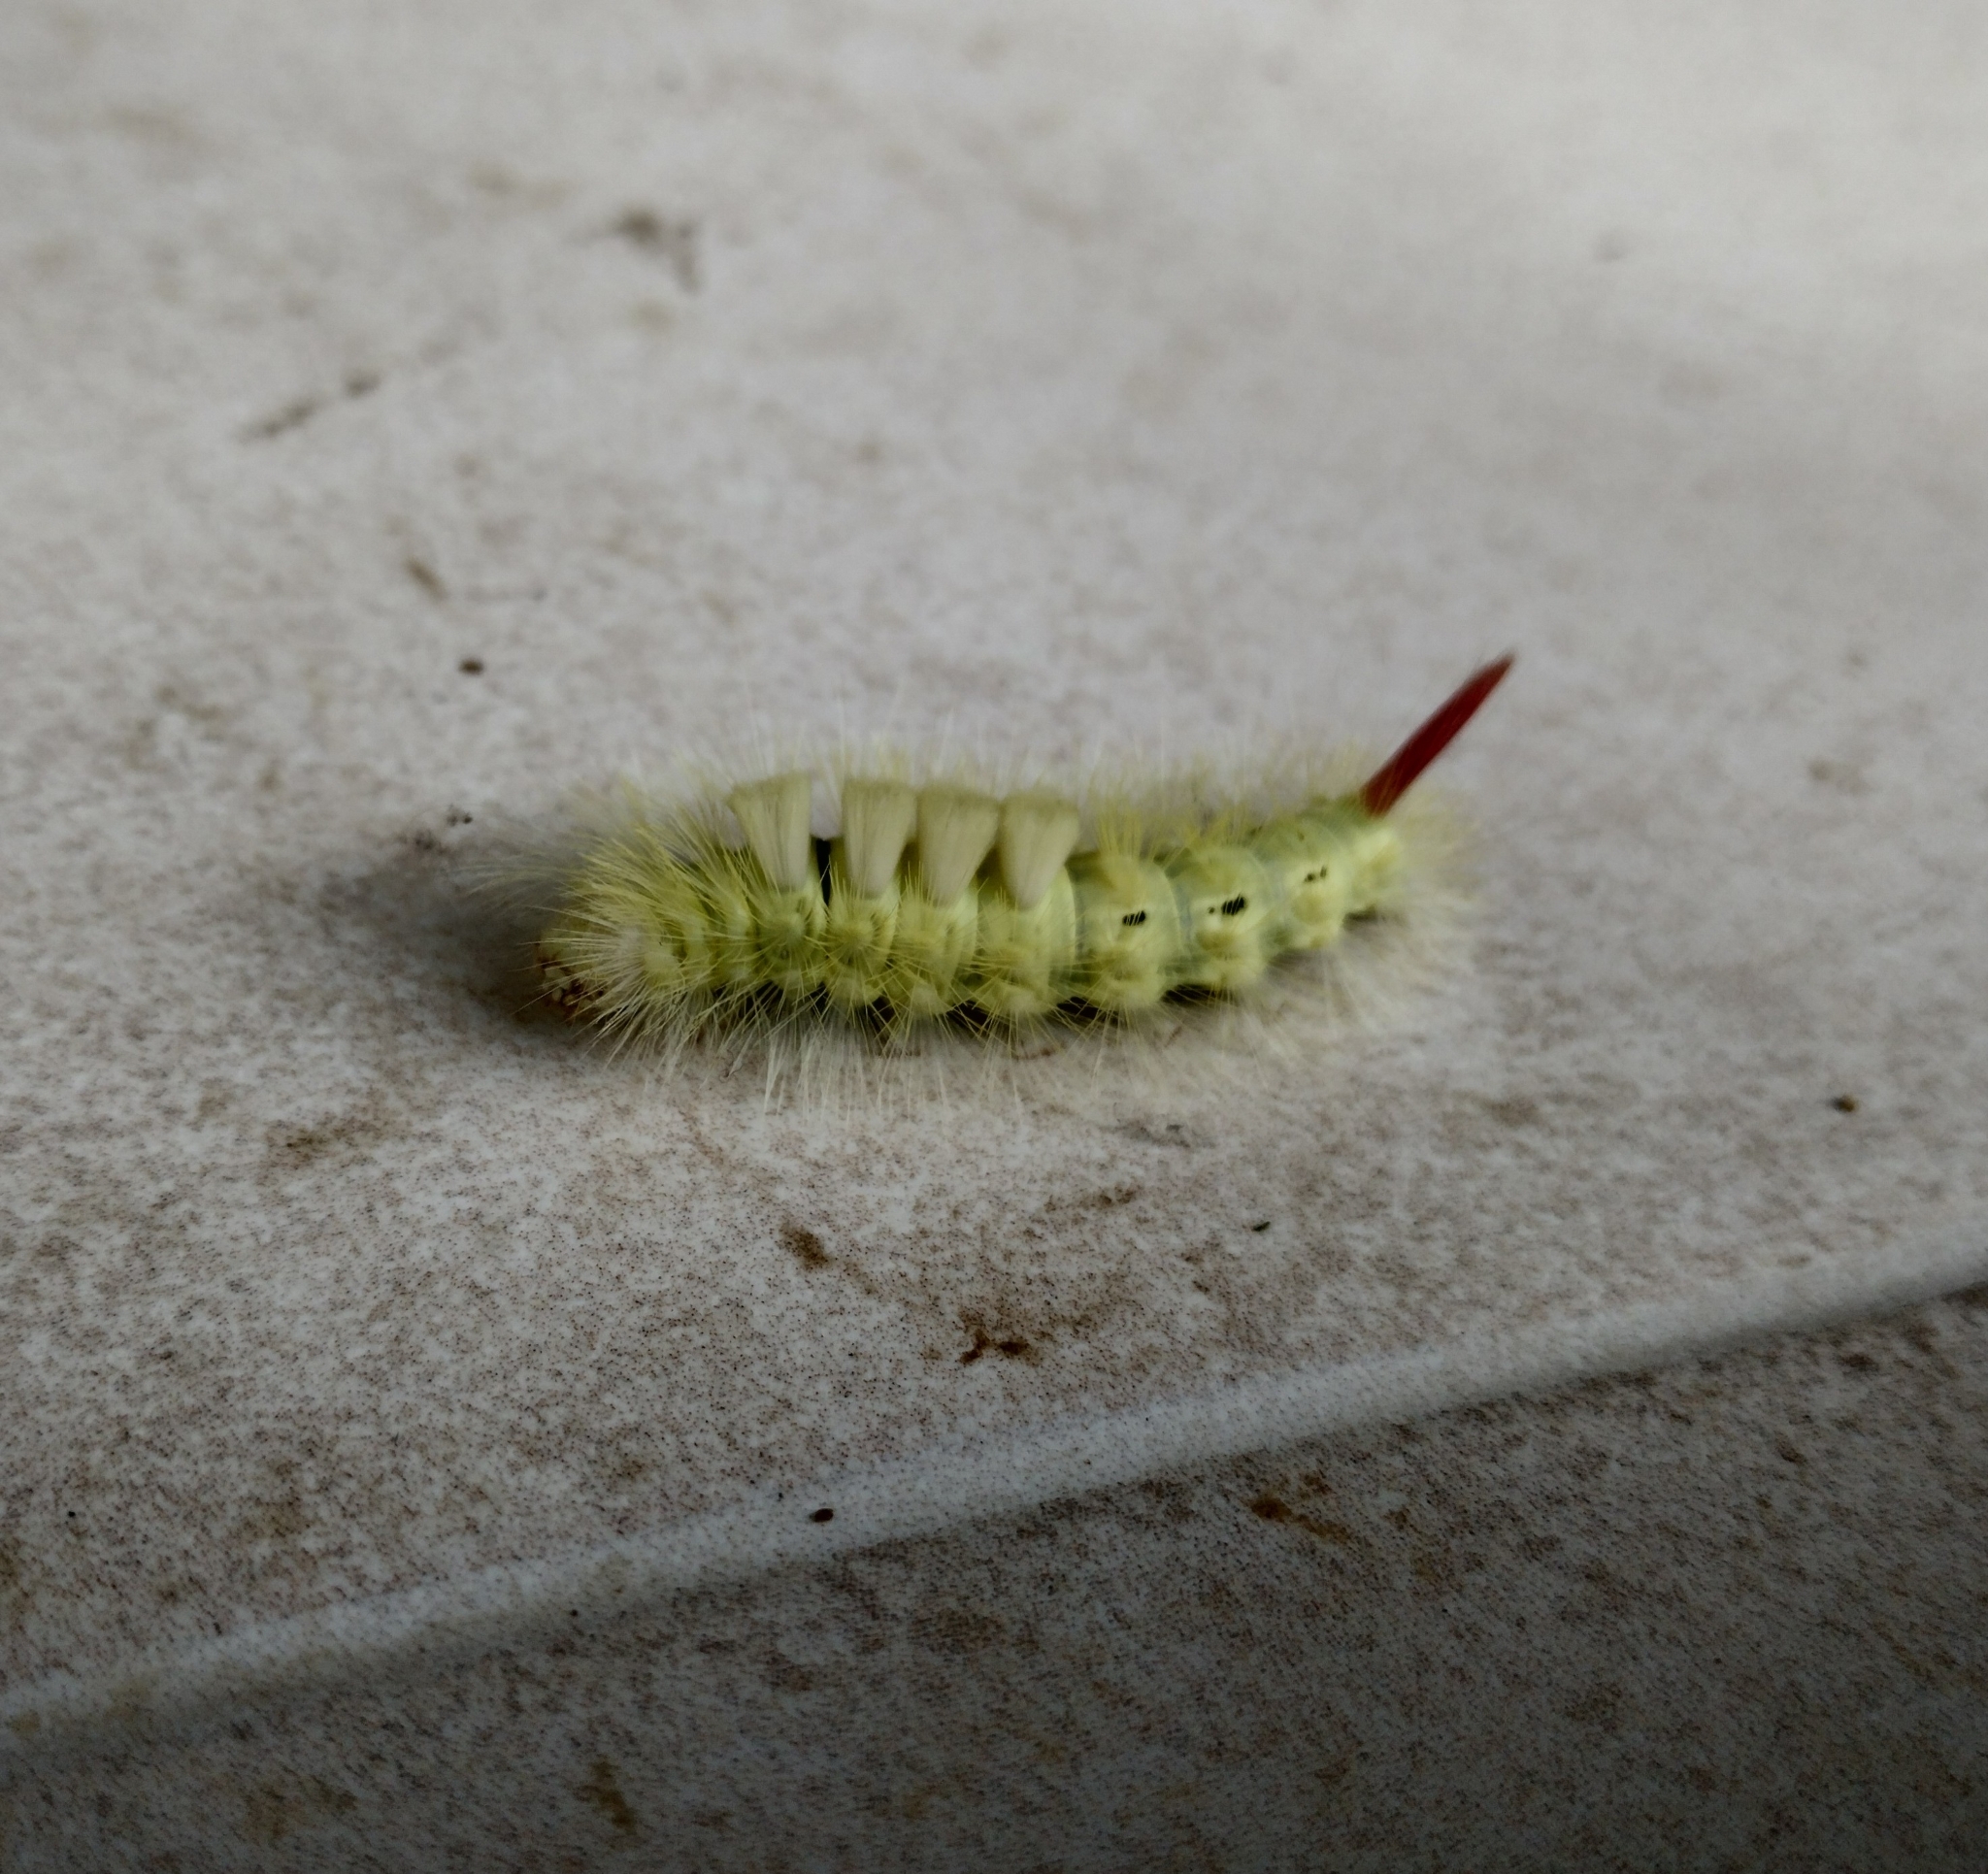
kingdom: Animalia
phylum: Arthropoda
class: Insecta
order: Lepidoptera
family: Erebidae
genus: Calliteara
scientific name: Calliteara pudibunda
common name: Pale tussock
